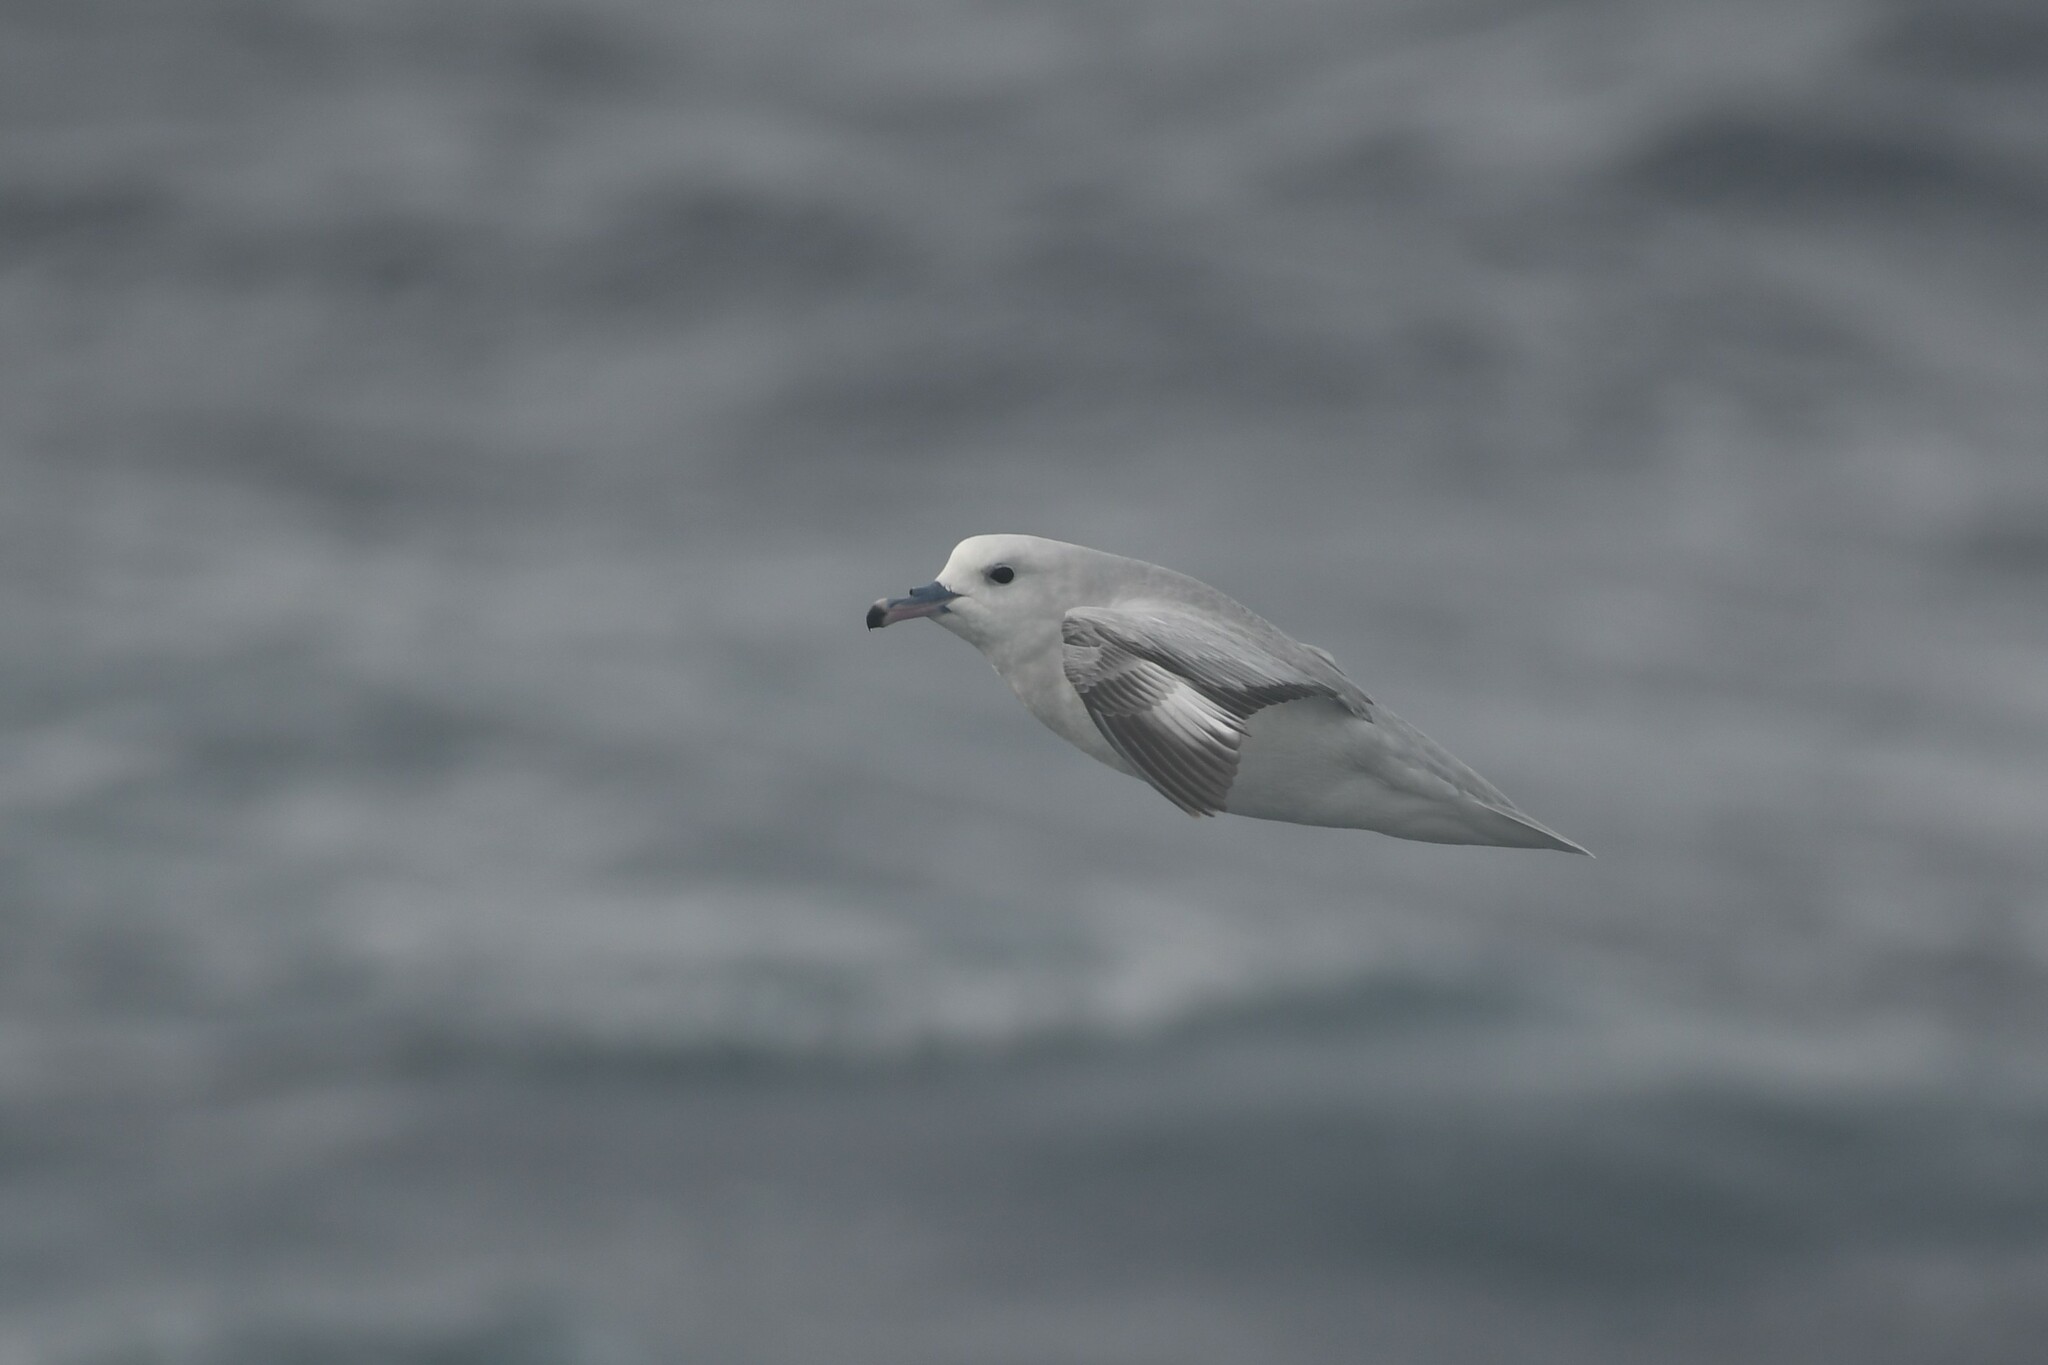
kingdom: Animalia
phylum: Chordata
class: Aves
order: Procellariiformes
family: Procellariidae
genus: Fulmarus
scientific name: Fulmarus glacialoides
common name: Southern fulmar
